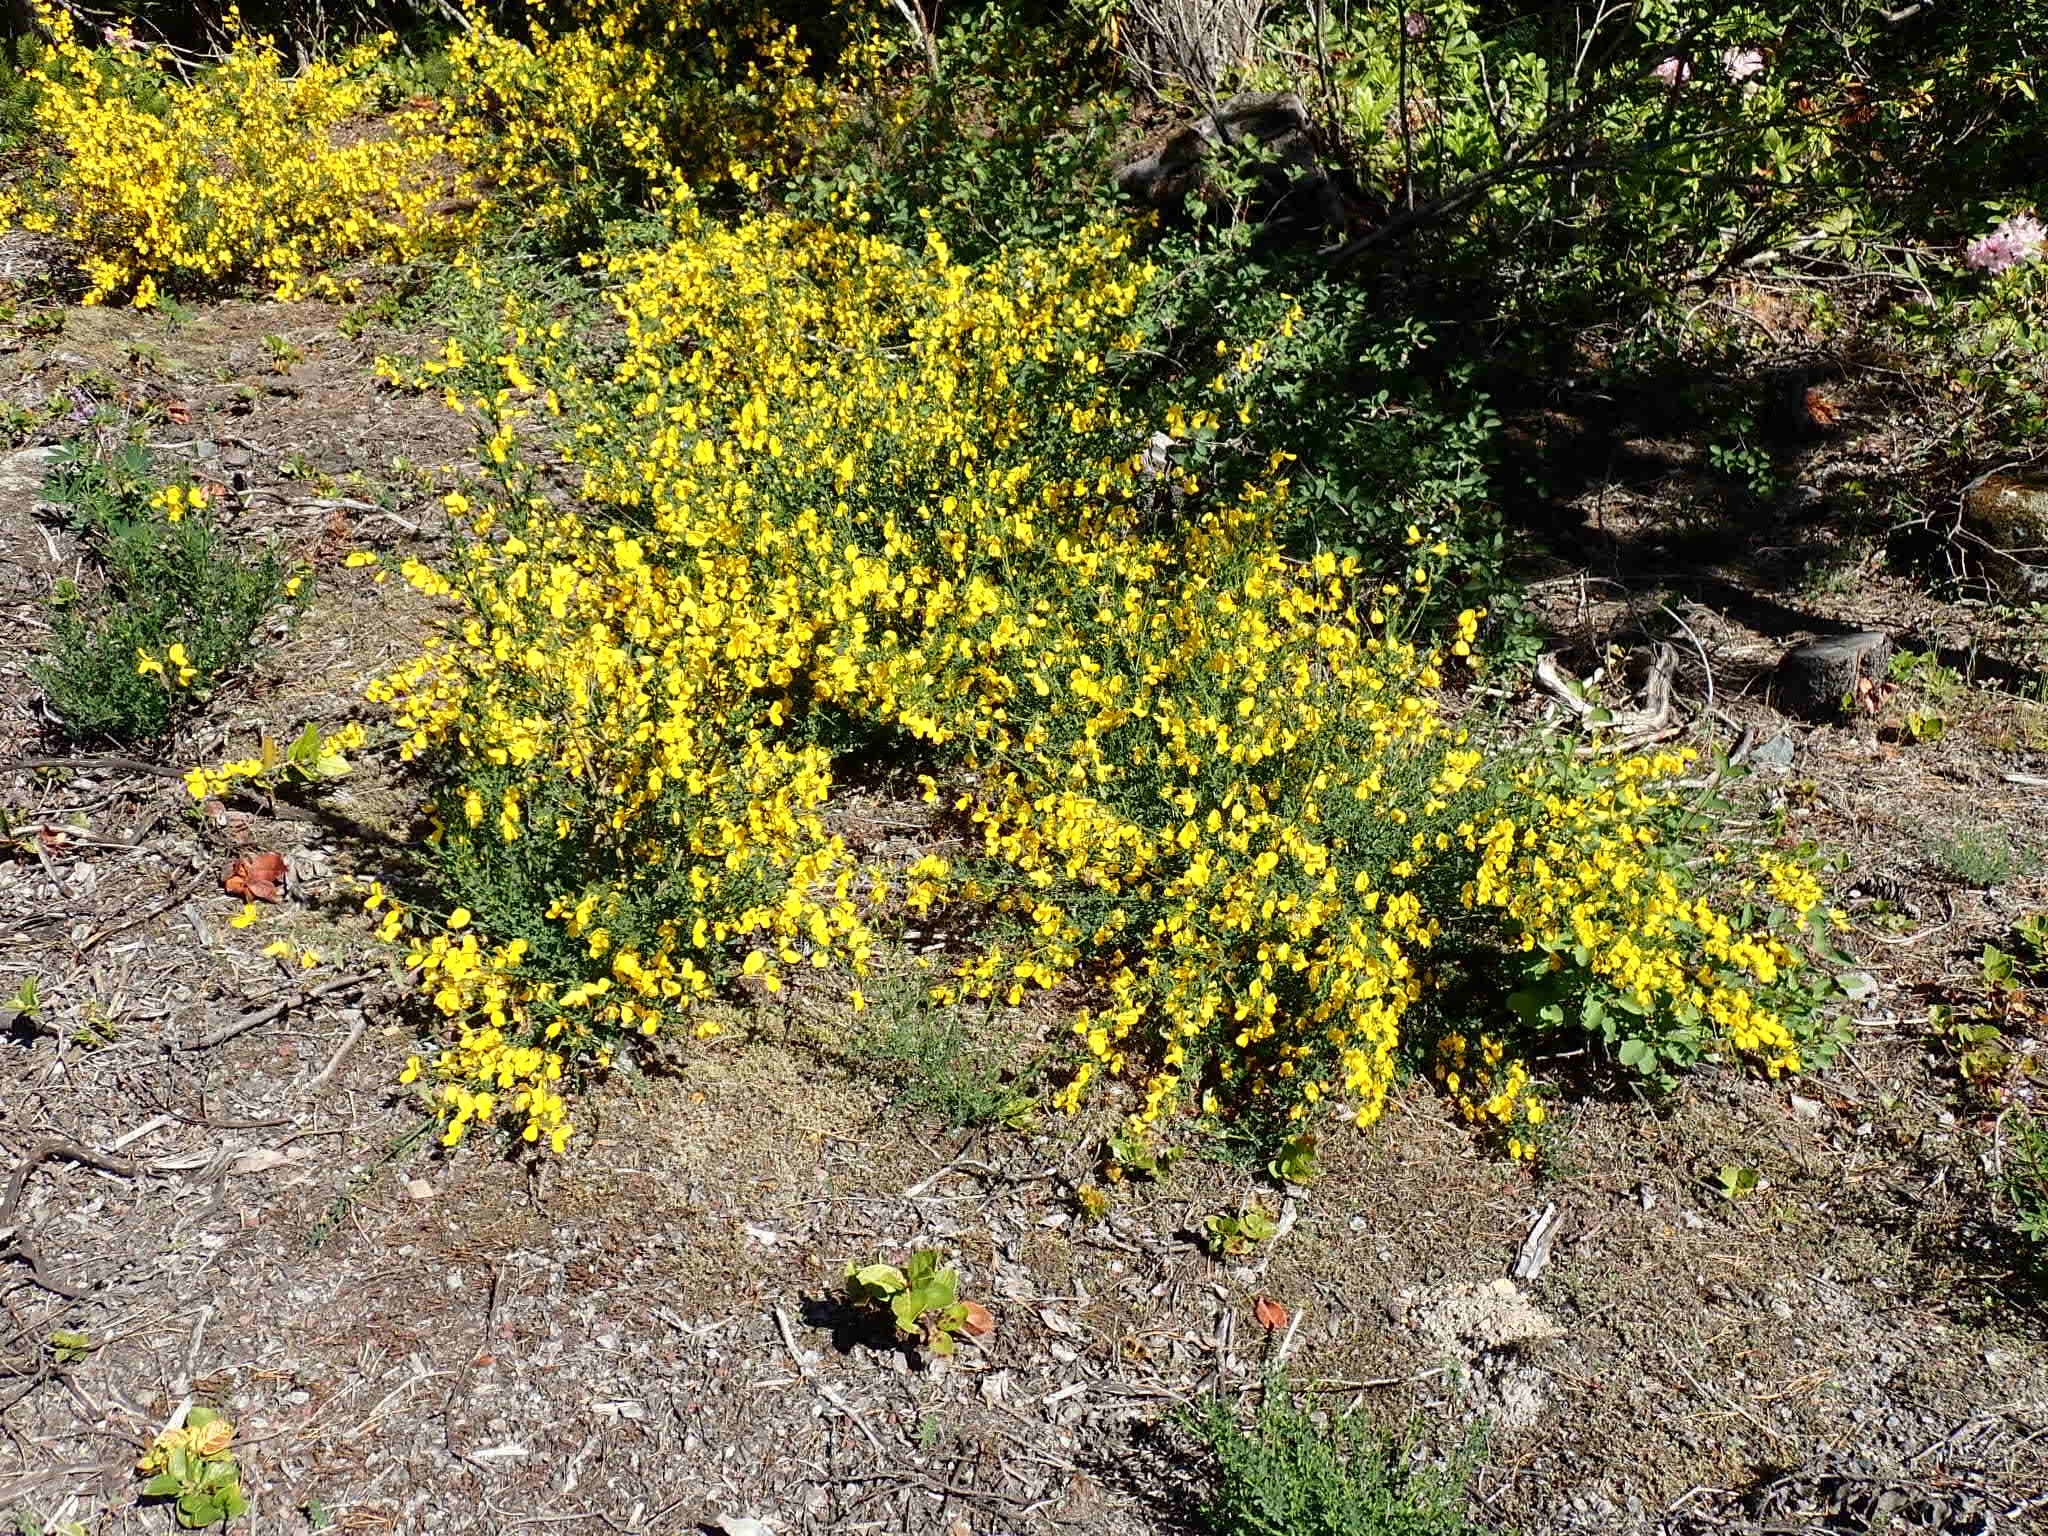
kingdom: Plantae
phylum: Tracheophyta
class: Magnoliopsida
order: Fabales
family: Fabaceae
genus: Cytisus
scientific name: Cytisus scoparius
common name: Scotch broom
